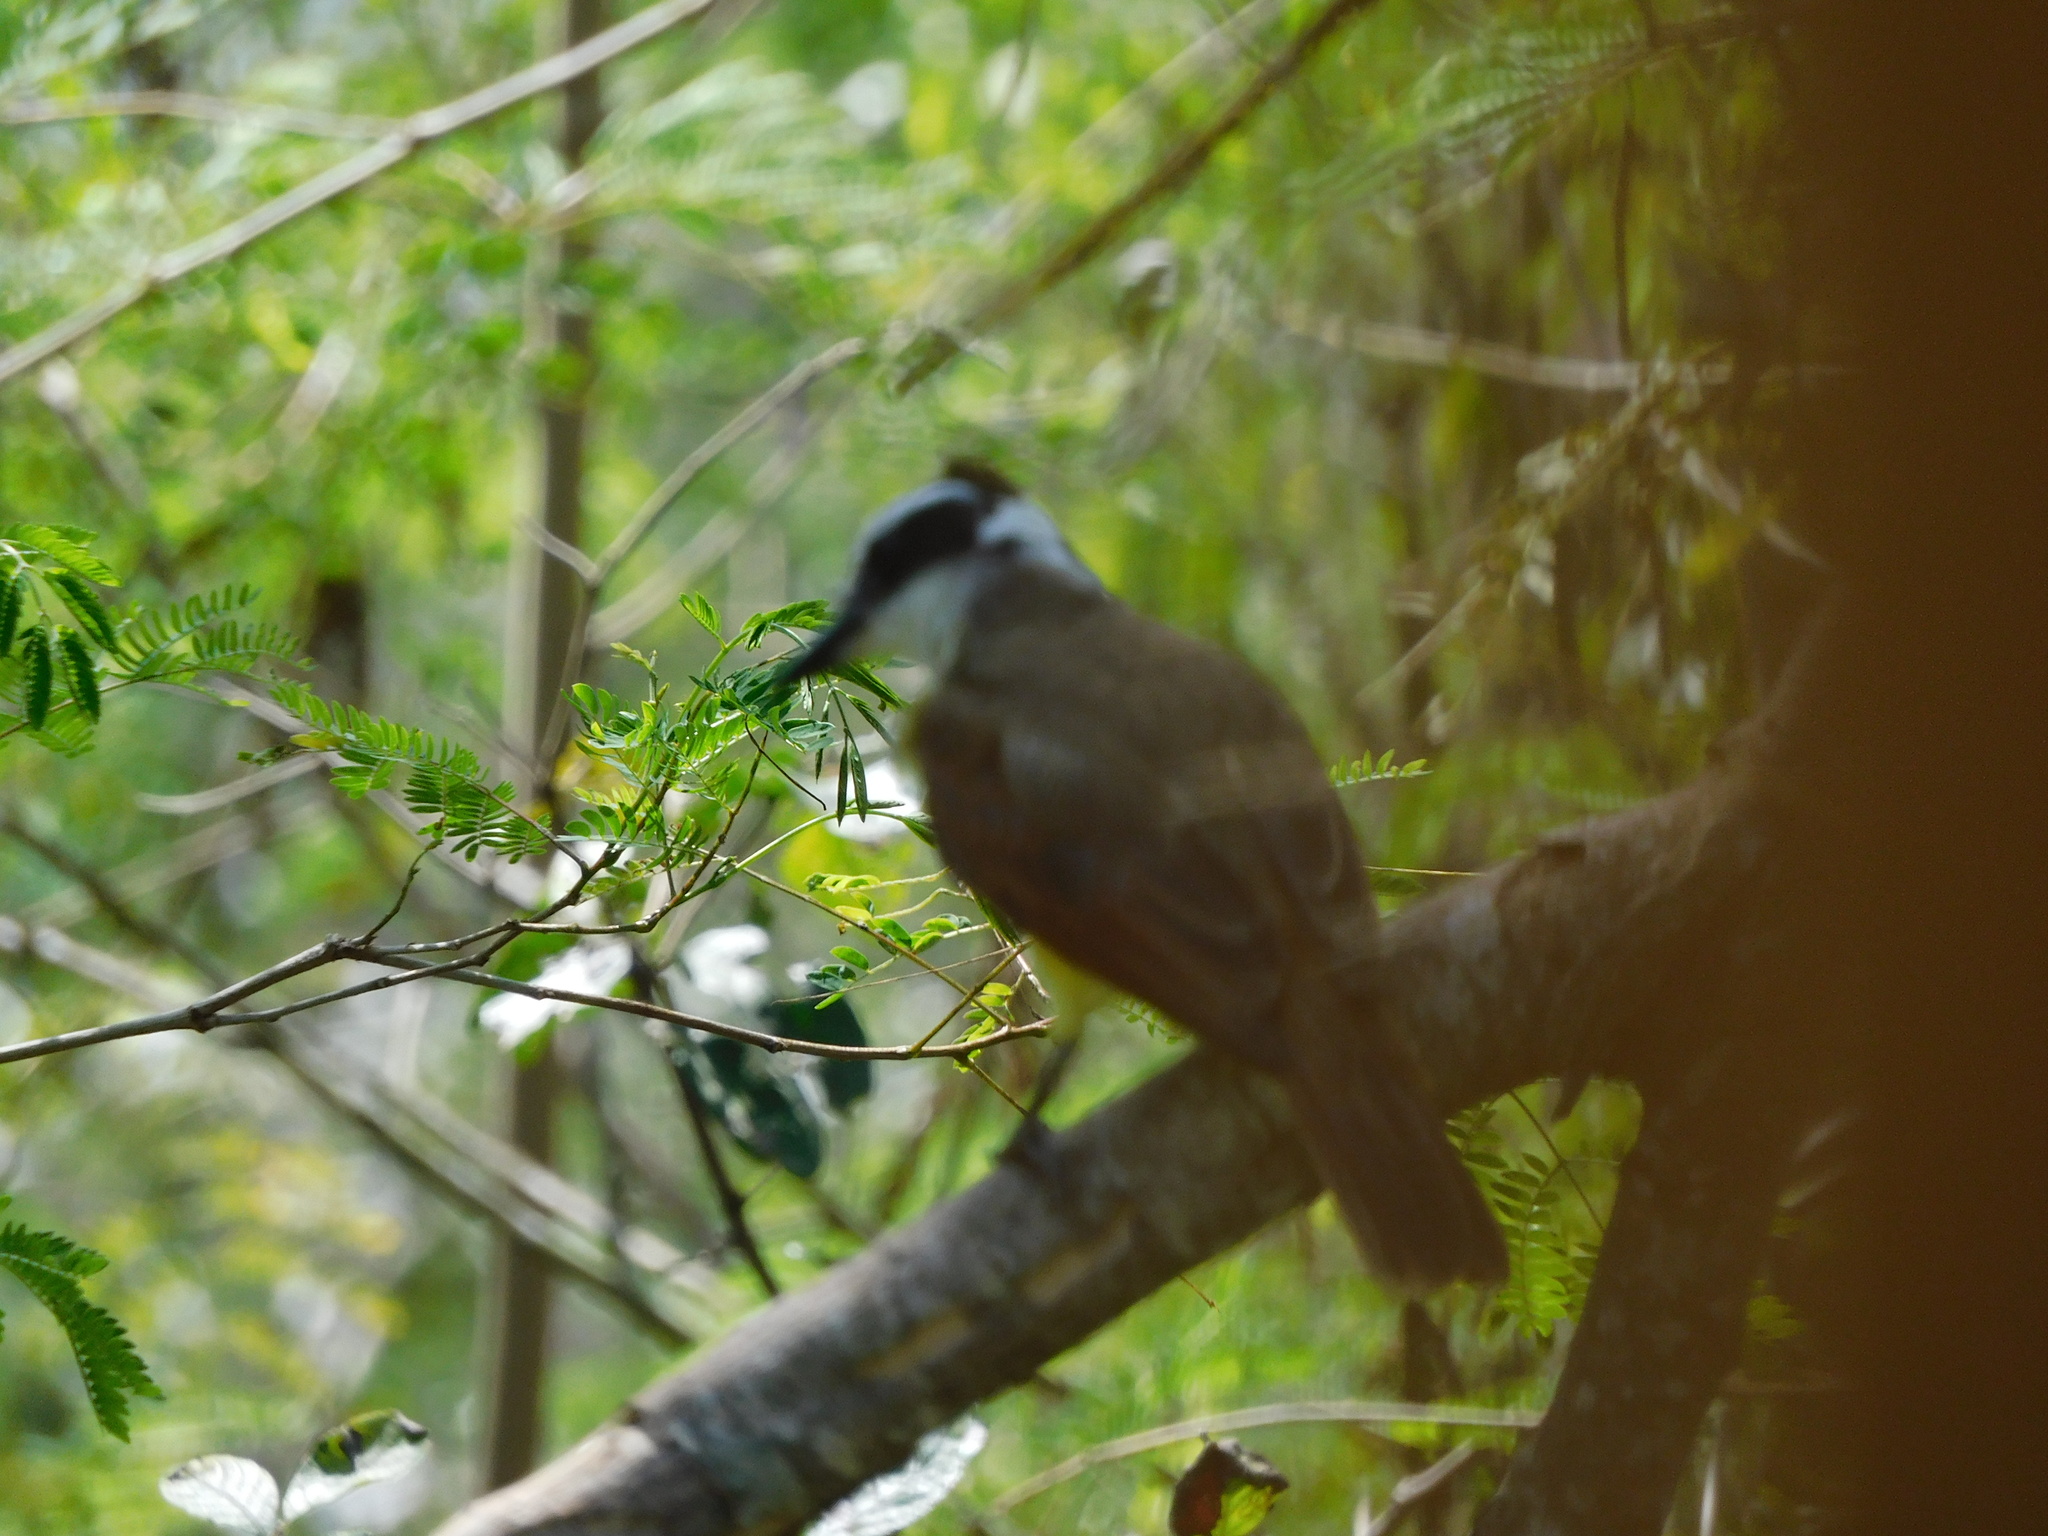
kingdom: Animalia
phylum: Chordata
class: Aves
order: Passeriformes
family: Tyrannidae
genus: Pitangus
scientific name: Pitangus sulphuratus
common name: Great kiskadee
